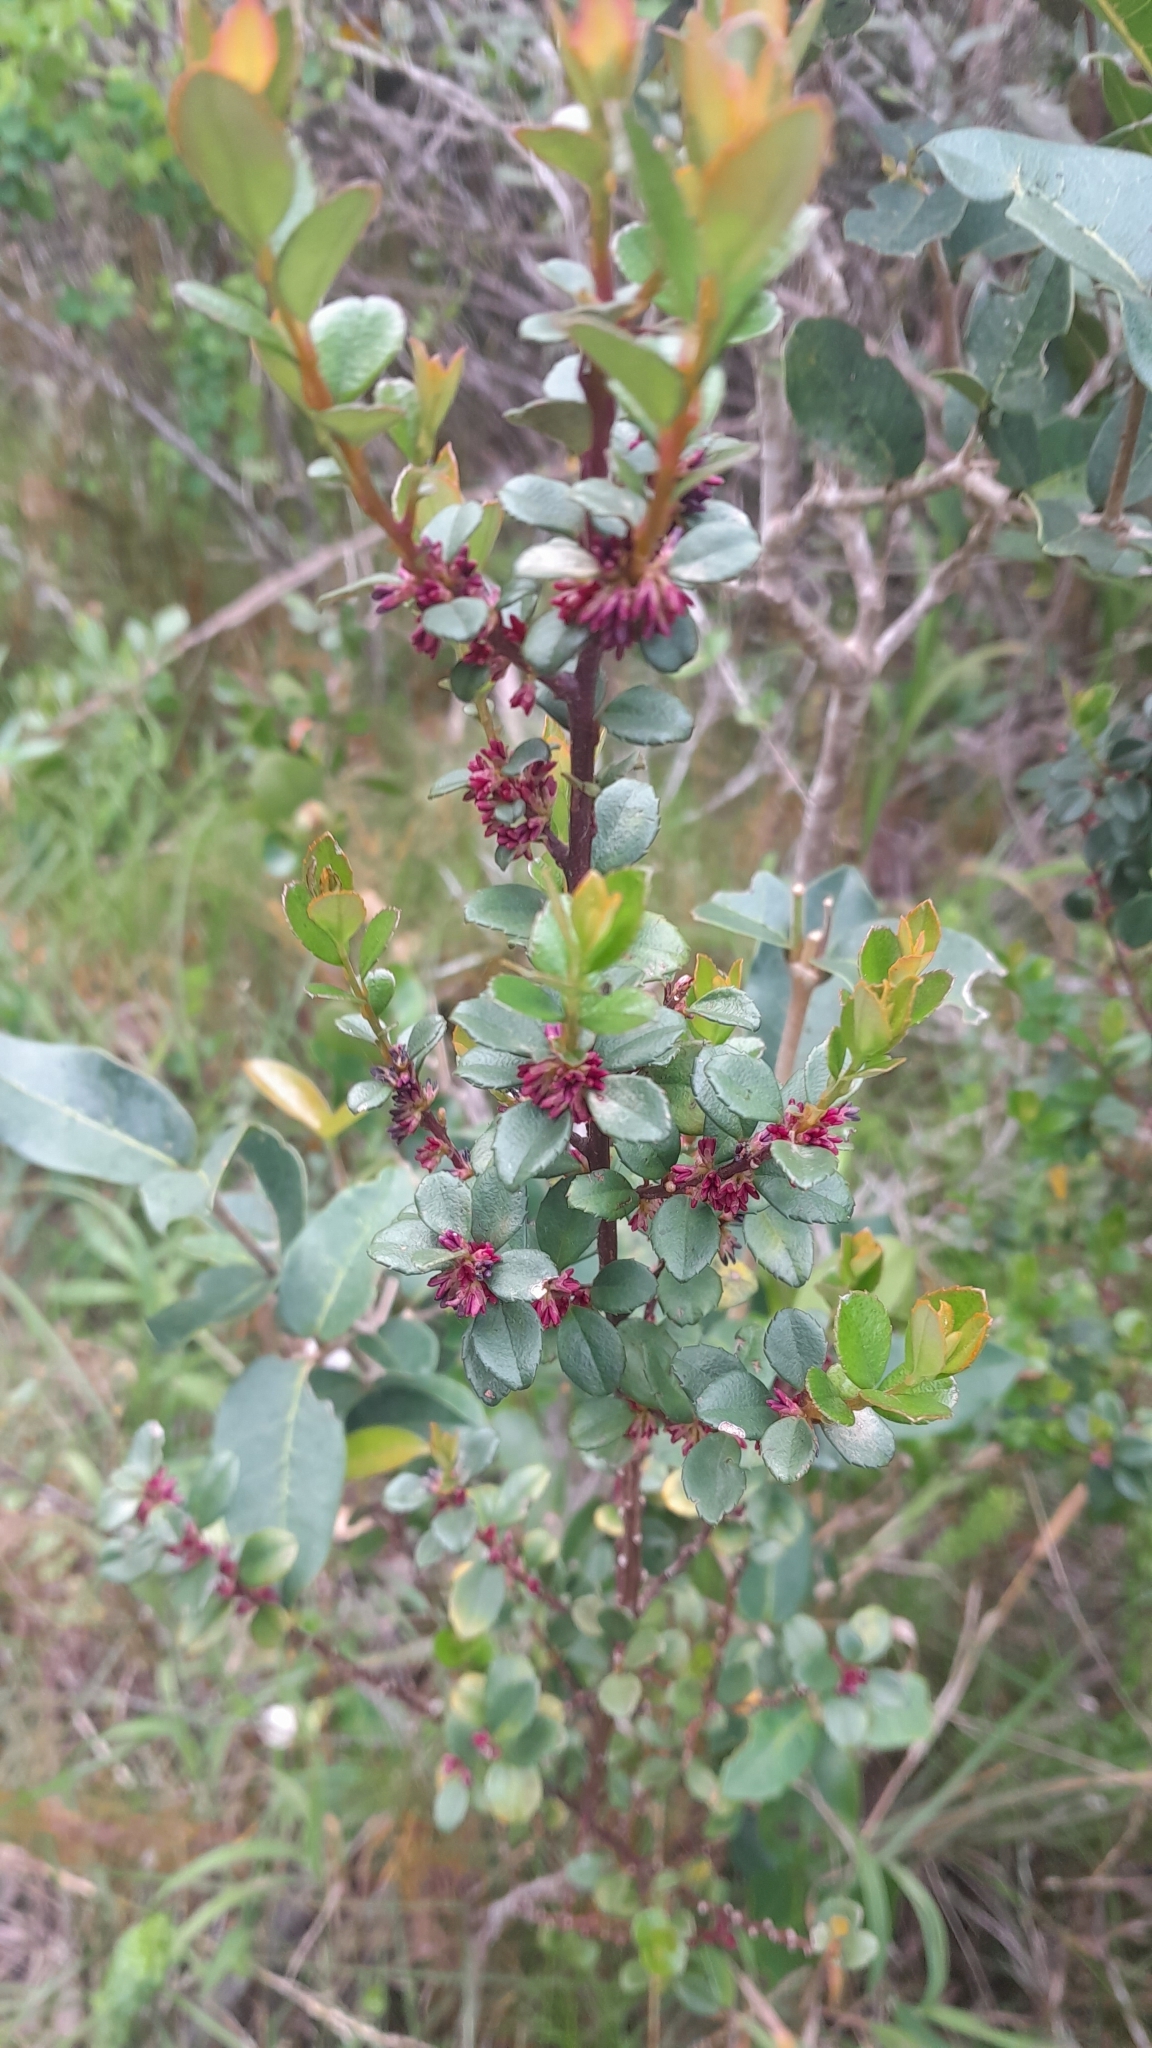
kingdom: Plantae
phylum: Tracheophyta
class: Magnoliopsida
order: Ericales
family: Primulaceae
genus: Myrsine
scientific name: Myrsine africana
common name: African-boxwood
